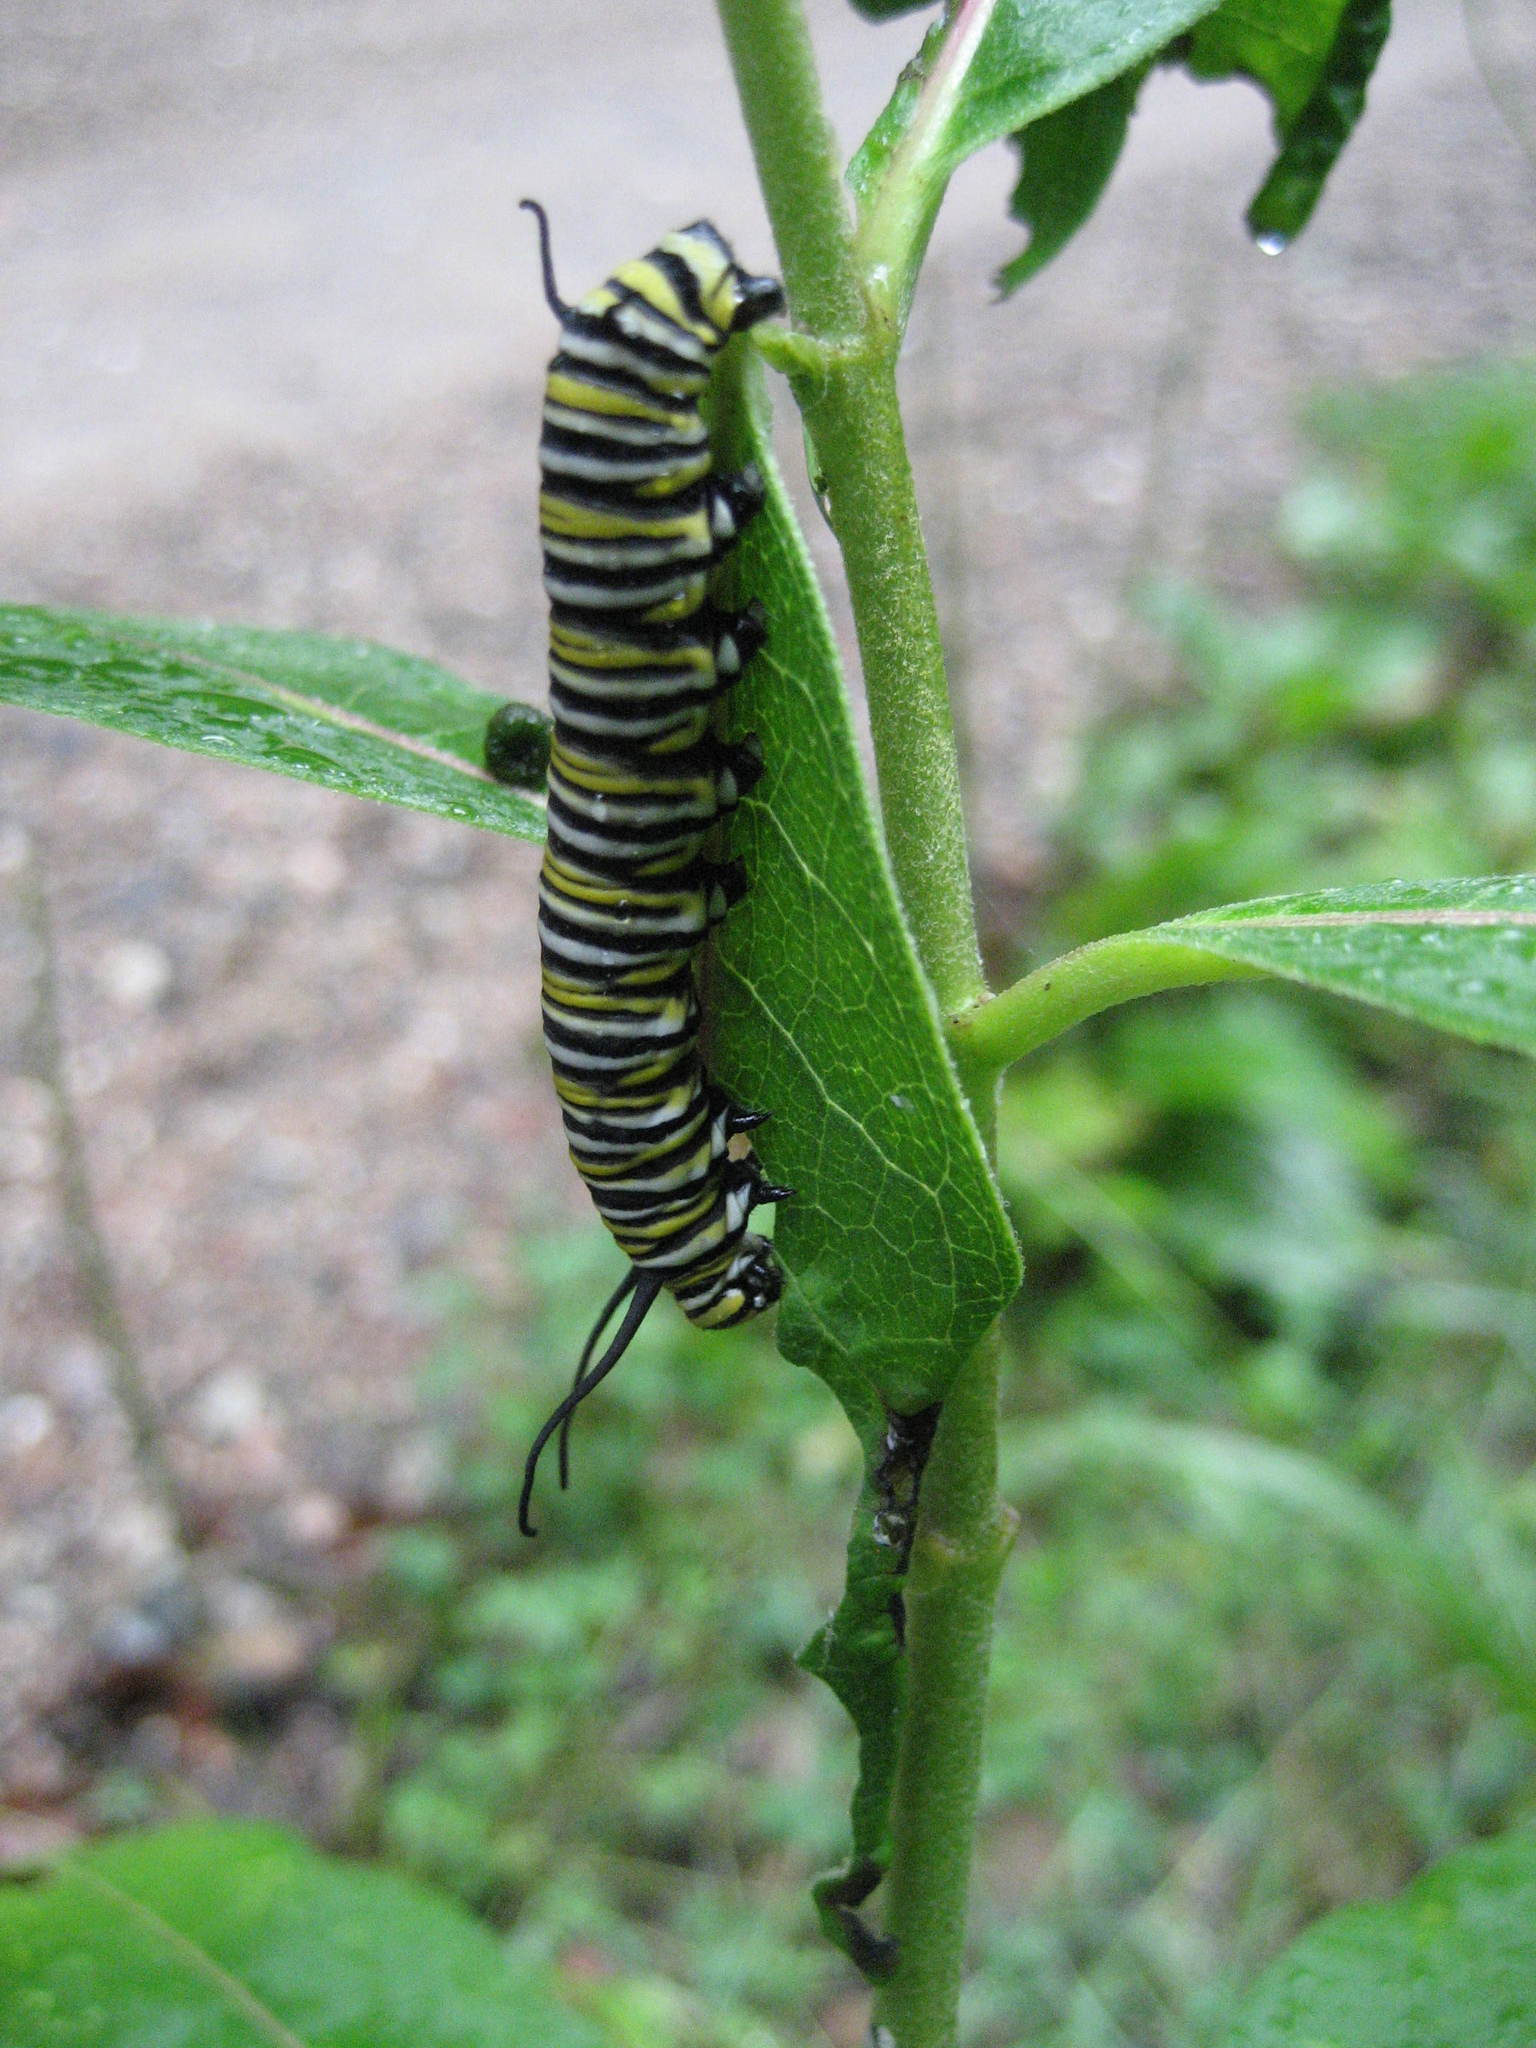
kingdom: Animalia
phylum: Arthropoda
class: Insecta
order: Lepidoptera
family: Nymphalidae
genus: Danaus
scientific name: Danaus plexippus
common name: Monarch
